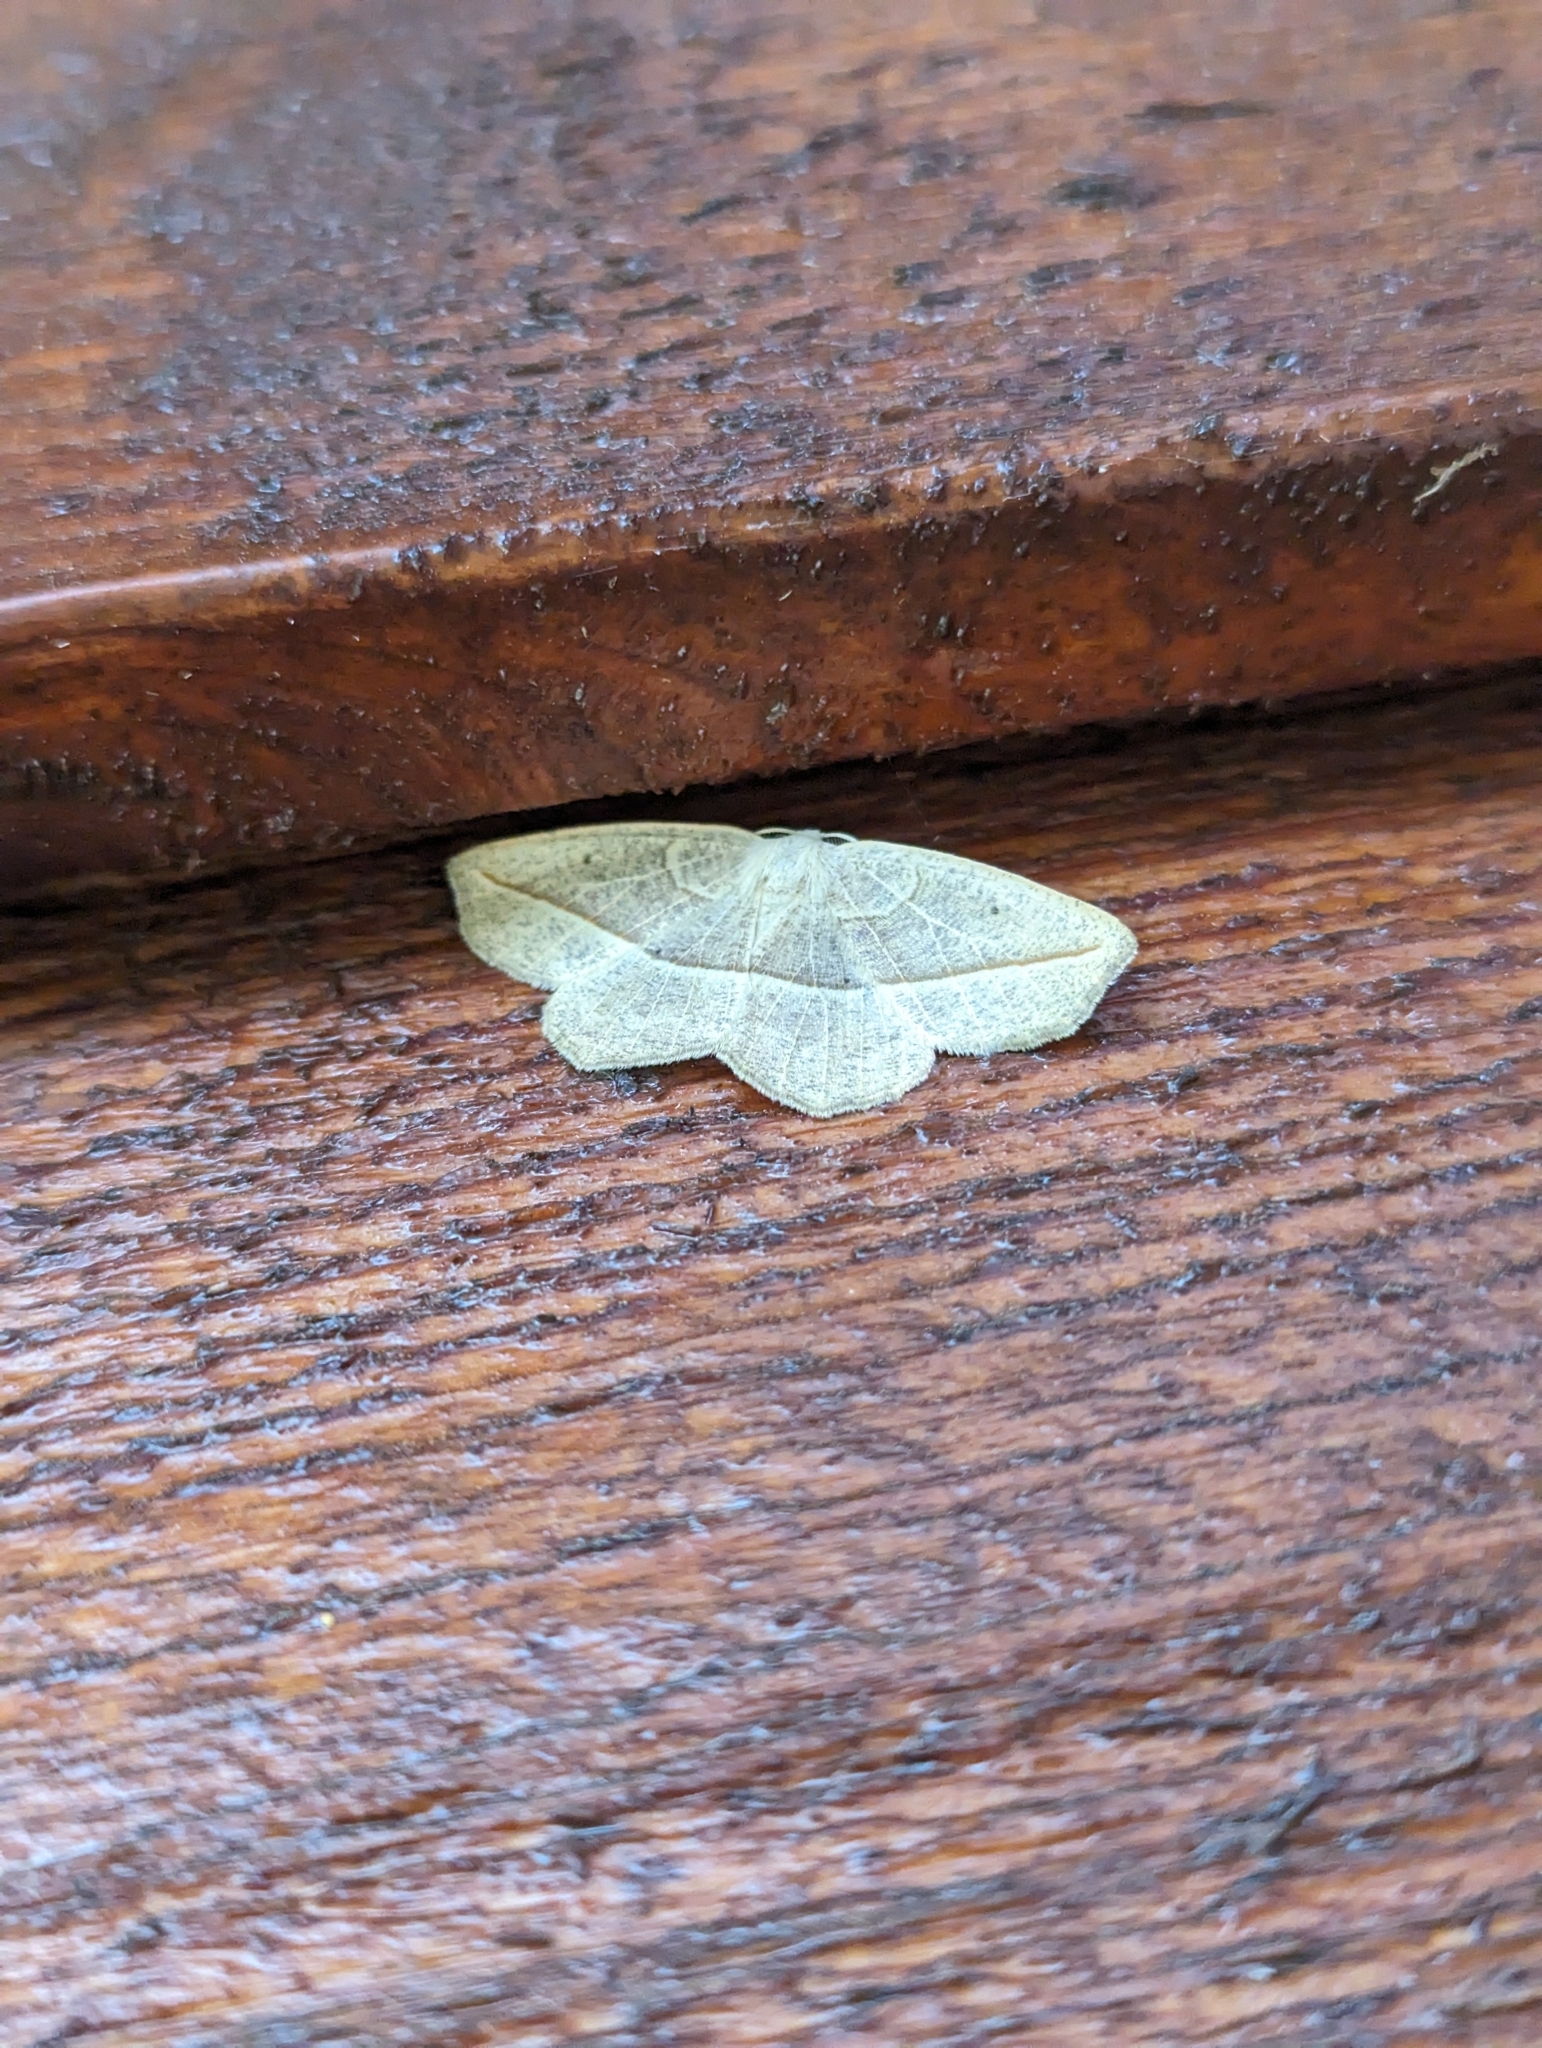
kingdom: Animalia
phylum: Arthropoda
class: Insecta
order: Lepidoptera
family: Geometridae
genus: Eusarca
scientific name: Eusarca confusaria
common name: Confused eusarca
